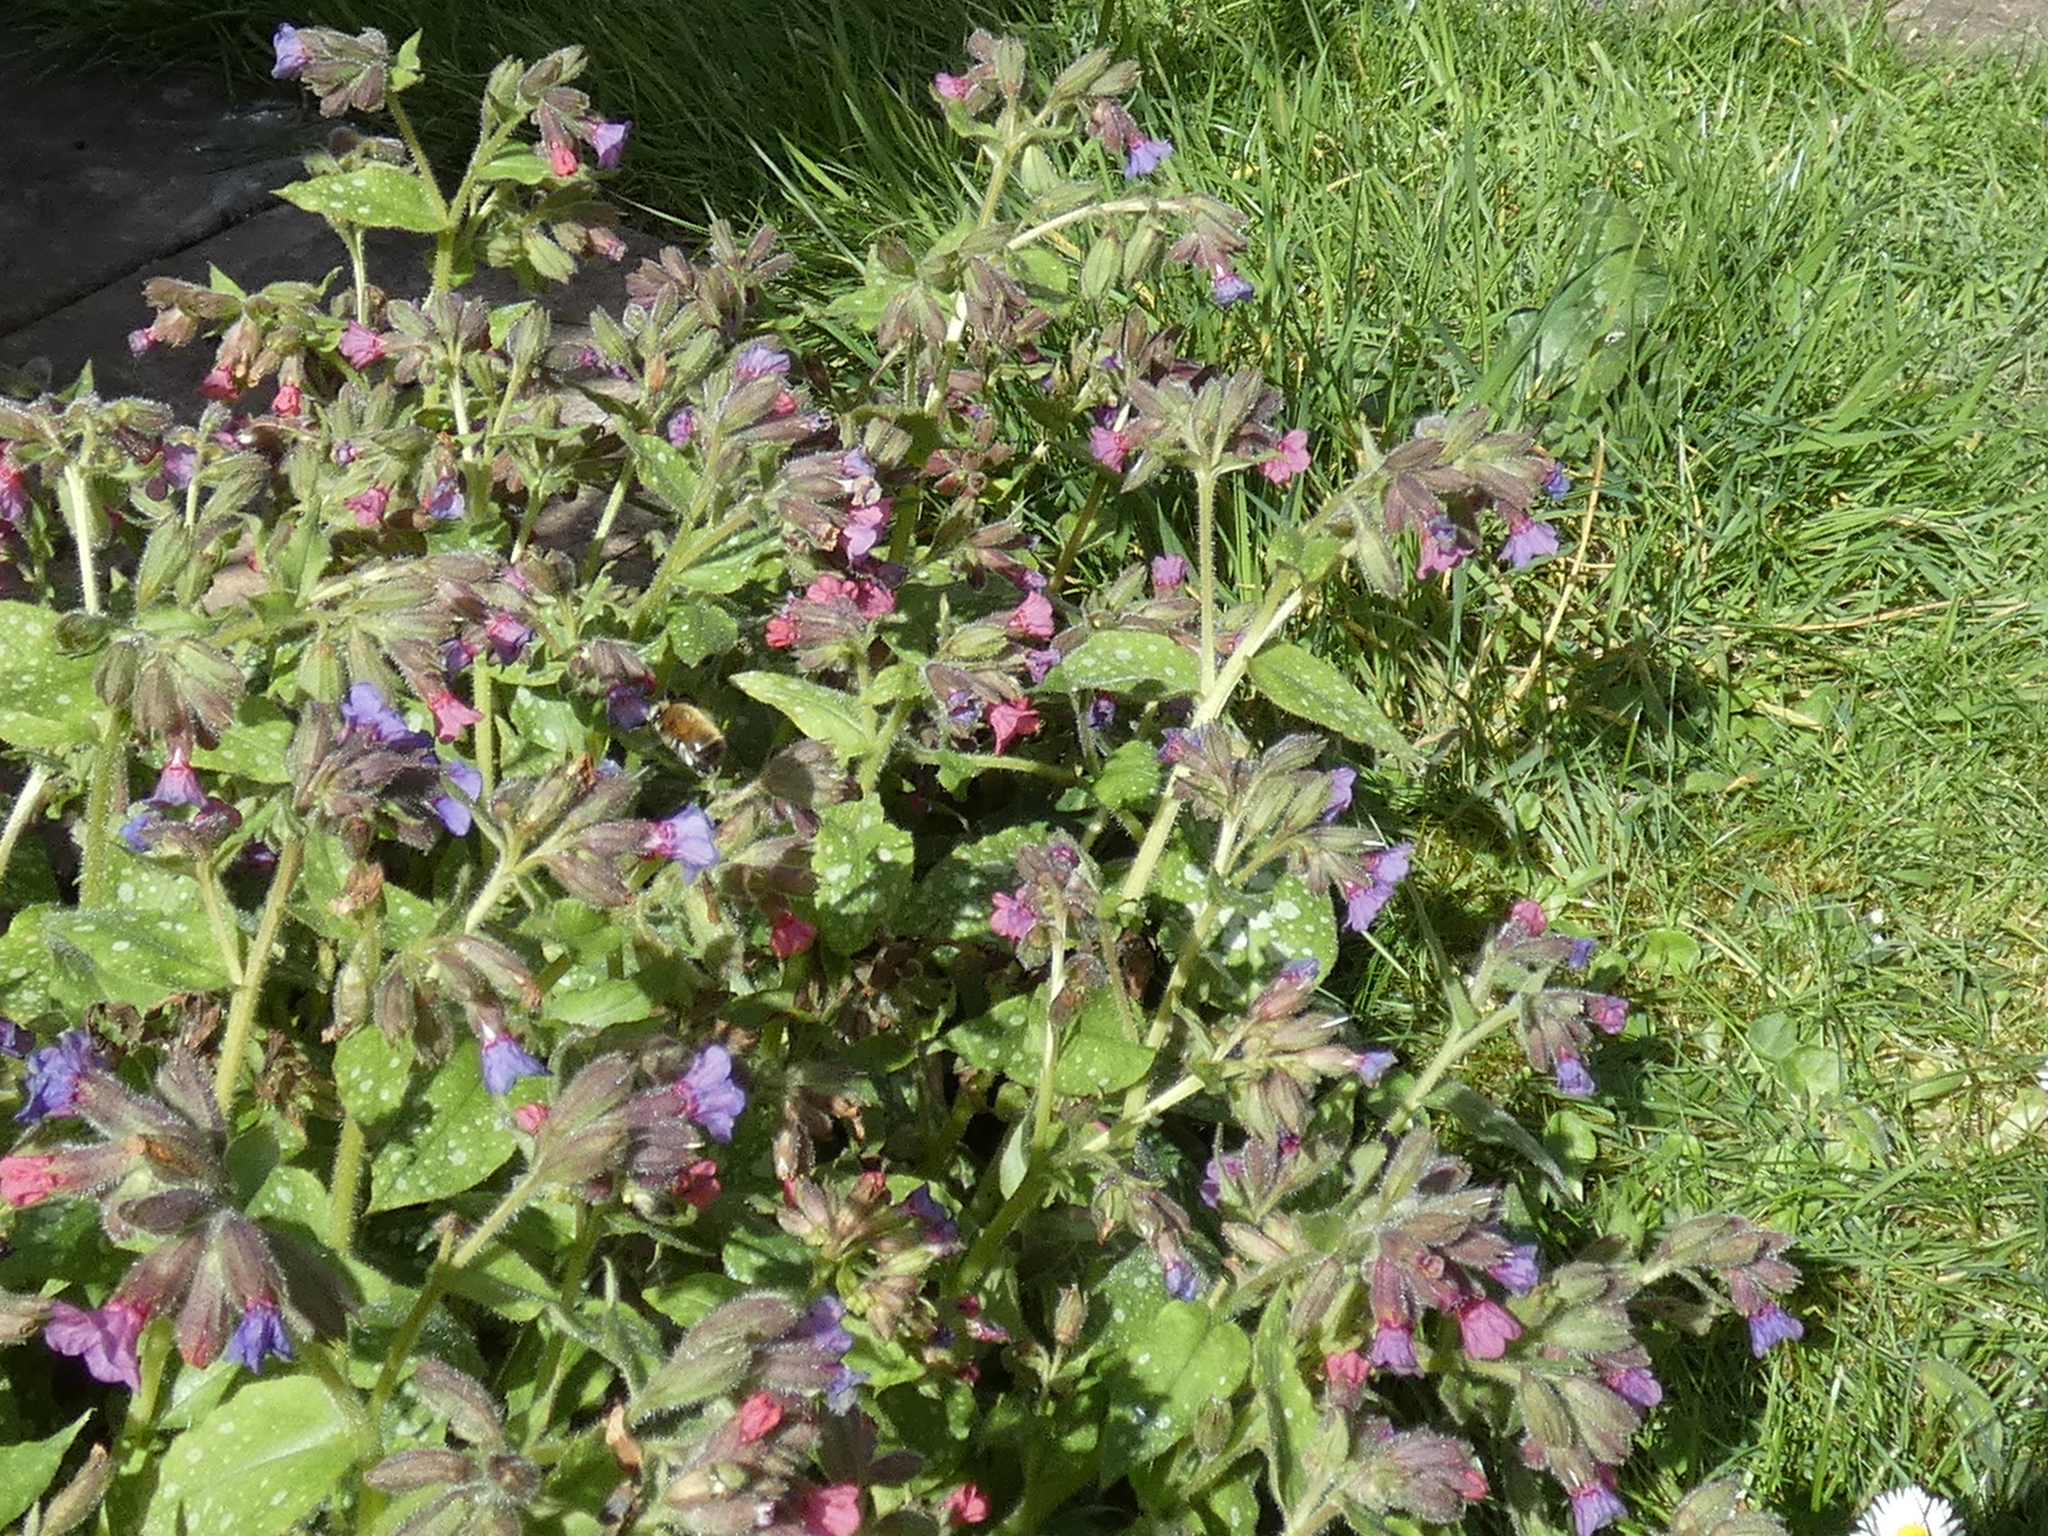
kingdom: Animalia
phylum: Arthropoda
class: Insecta
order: Hymenoptera
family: Apidae
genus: Anthophora
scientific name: Anthophora plumipes
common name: Hairy-footed flower bee
